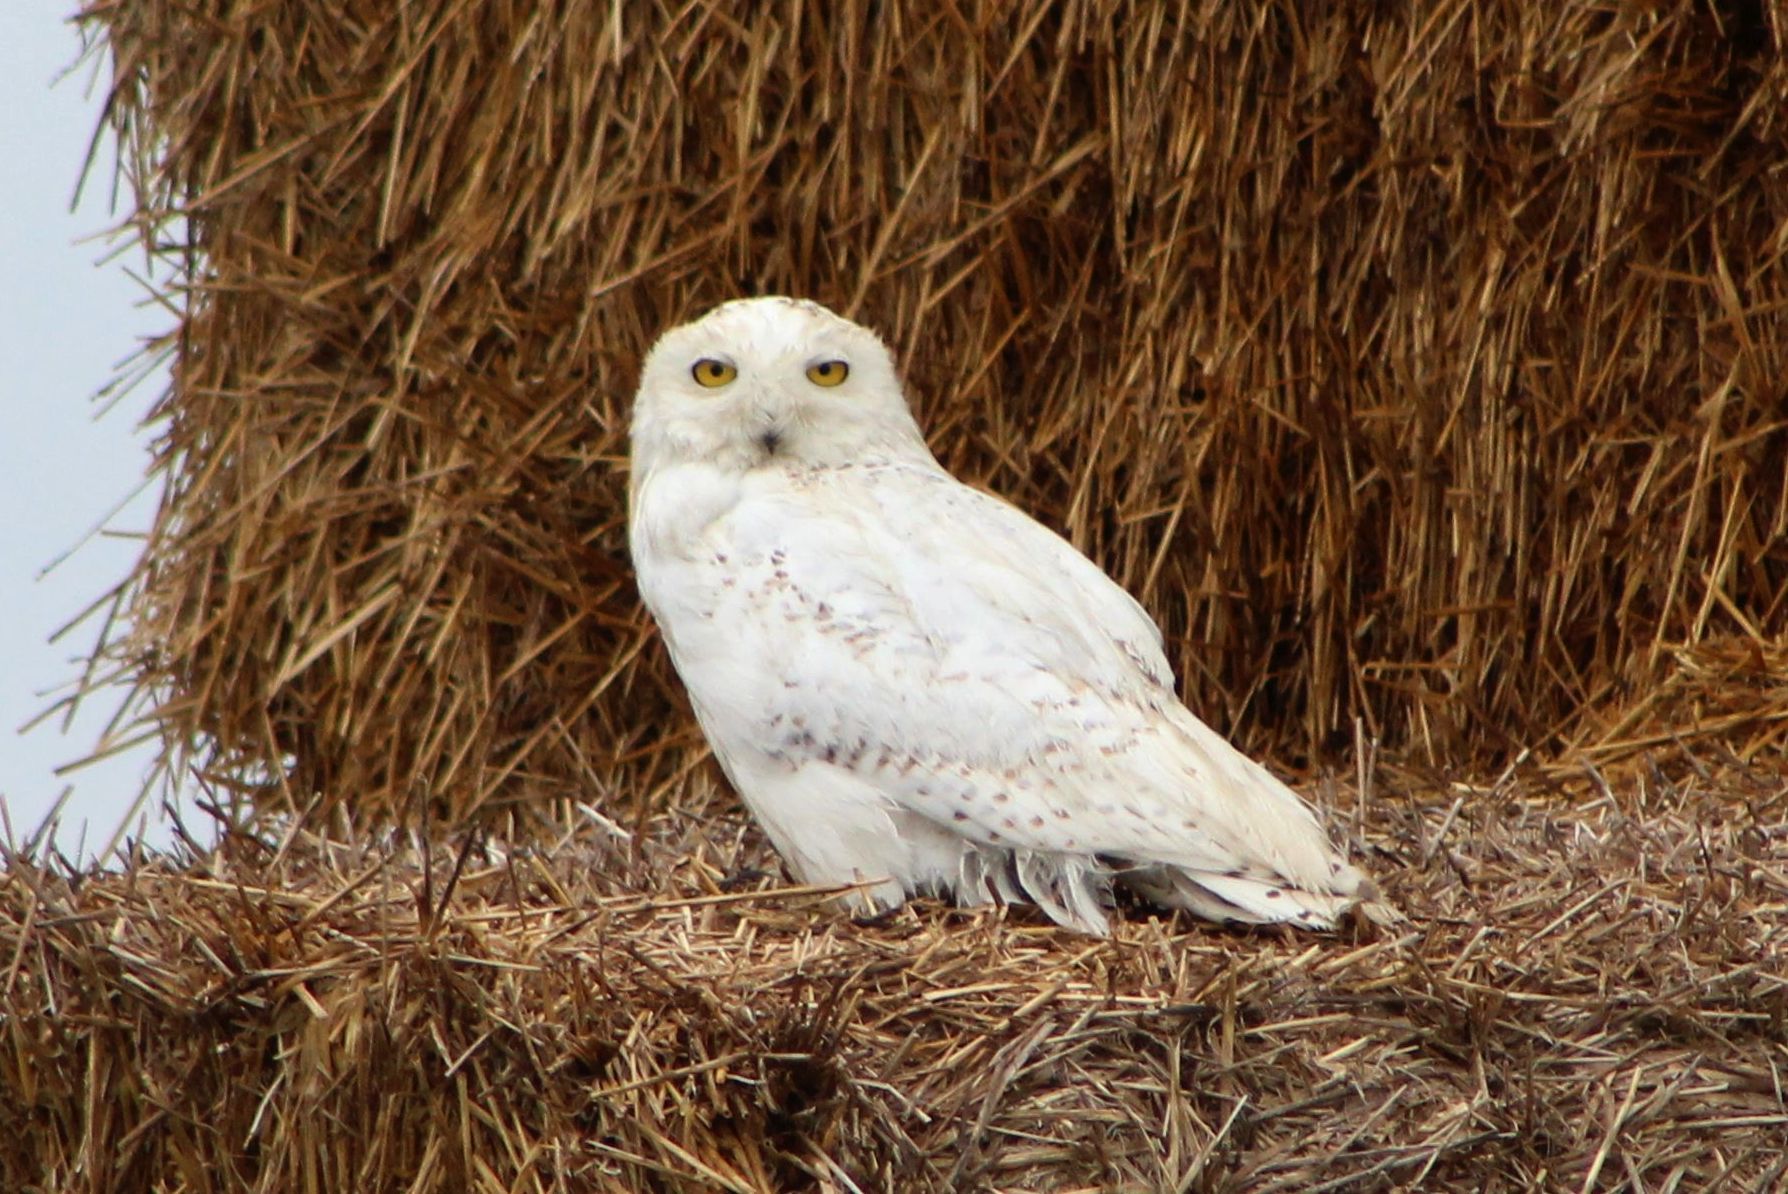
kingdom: Animalia
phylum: Chordata
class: Aves
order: Strigiformes
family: Strigidae
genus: Bubo
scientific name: Bubo scandiacus
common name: Snowy owl
